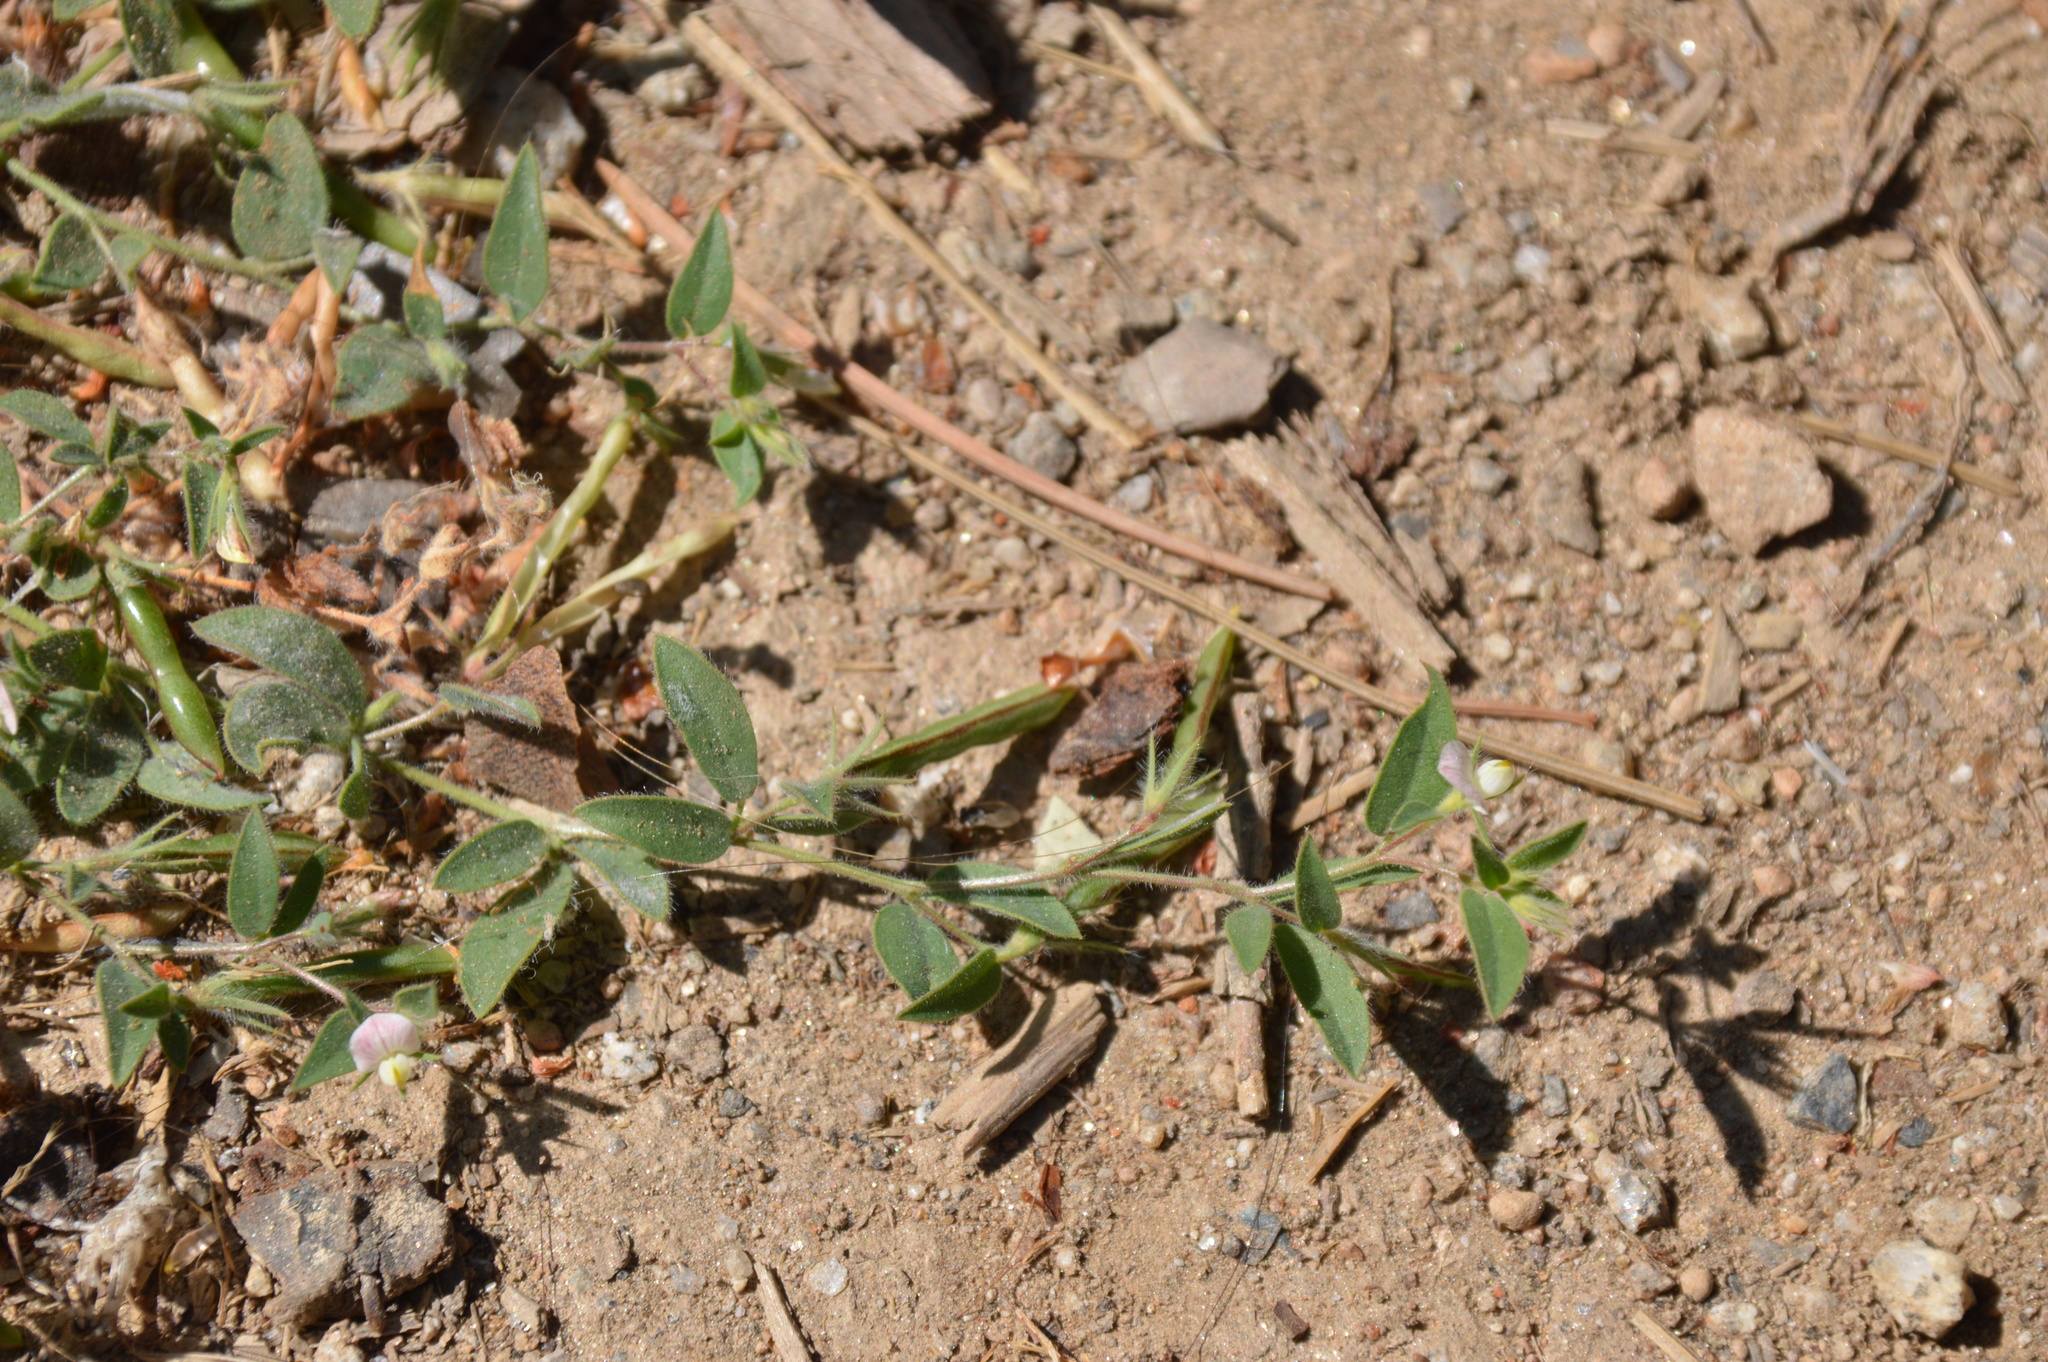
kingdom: Plantae
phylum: Tracheophyta
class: Magnoliopsida
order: Fabales
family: Fabaceae
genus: Acmispon
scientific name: Acmispon americanus
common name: American bird's-foot trefoil
